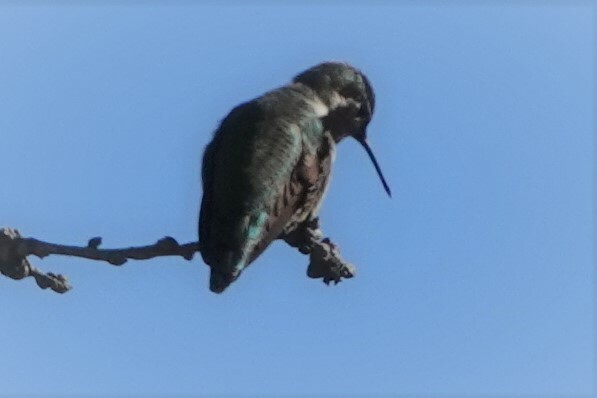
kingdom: Animalia
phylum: Chordata
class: Aves
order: Apodiformes
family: Trochilidae
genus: Calypte
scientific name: Calypte anna
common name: Anna's hummingbird
